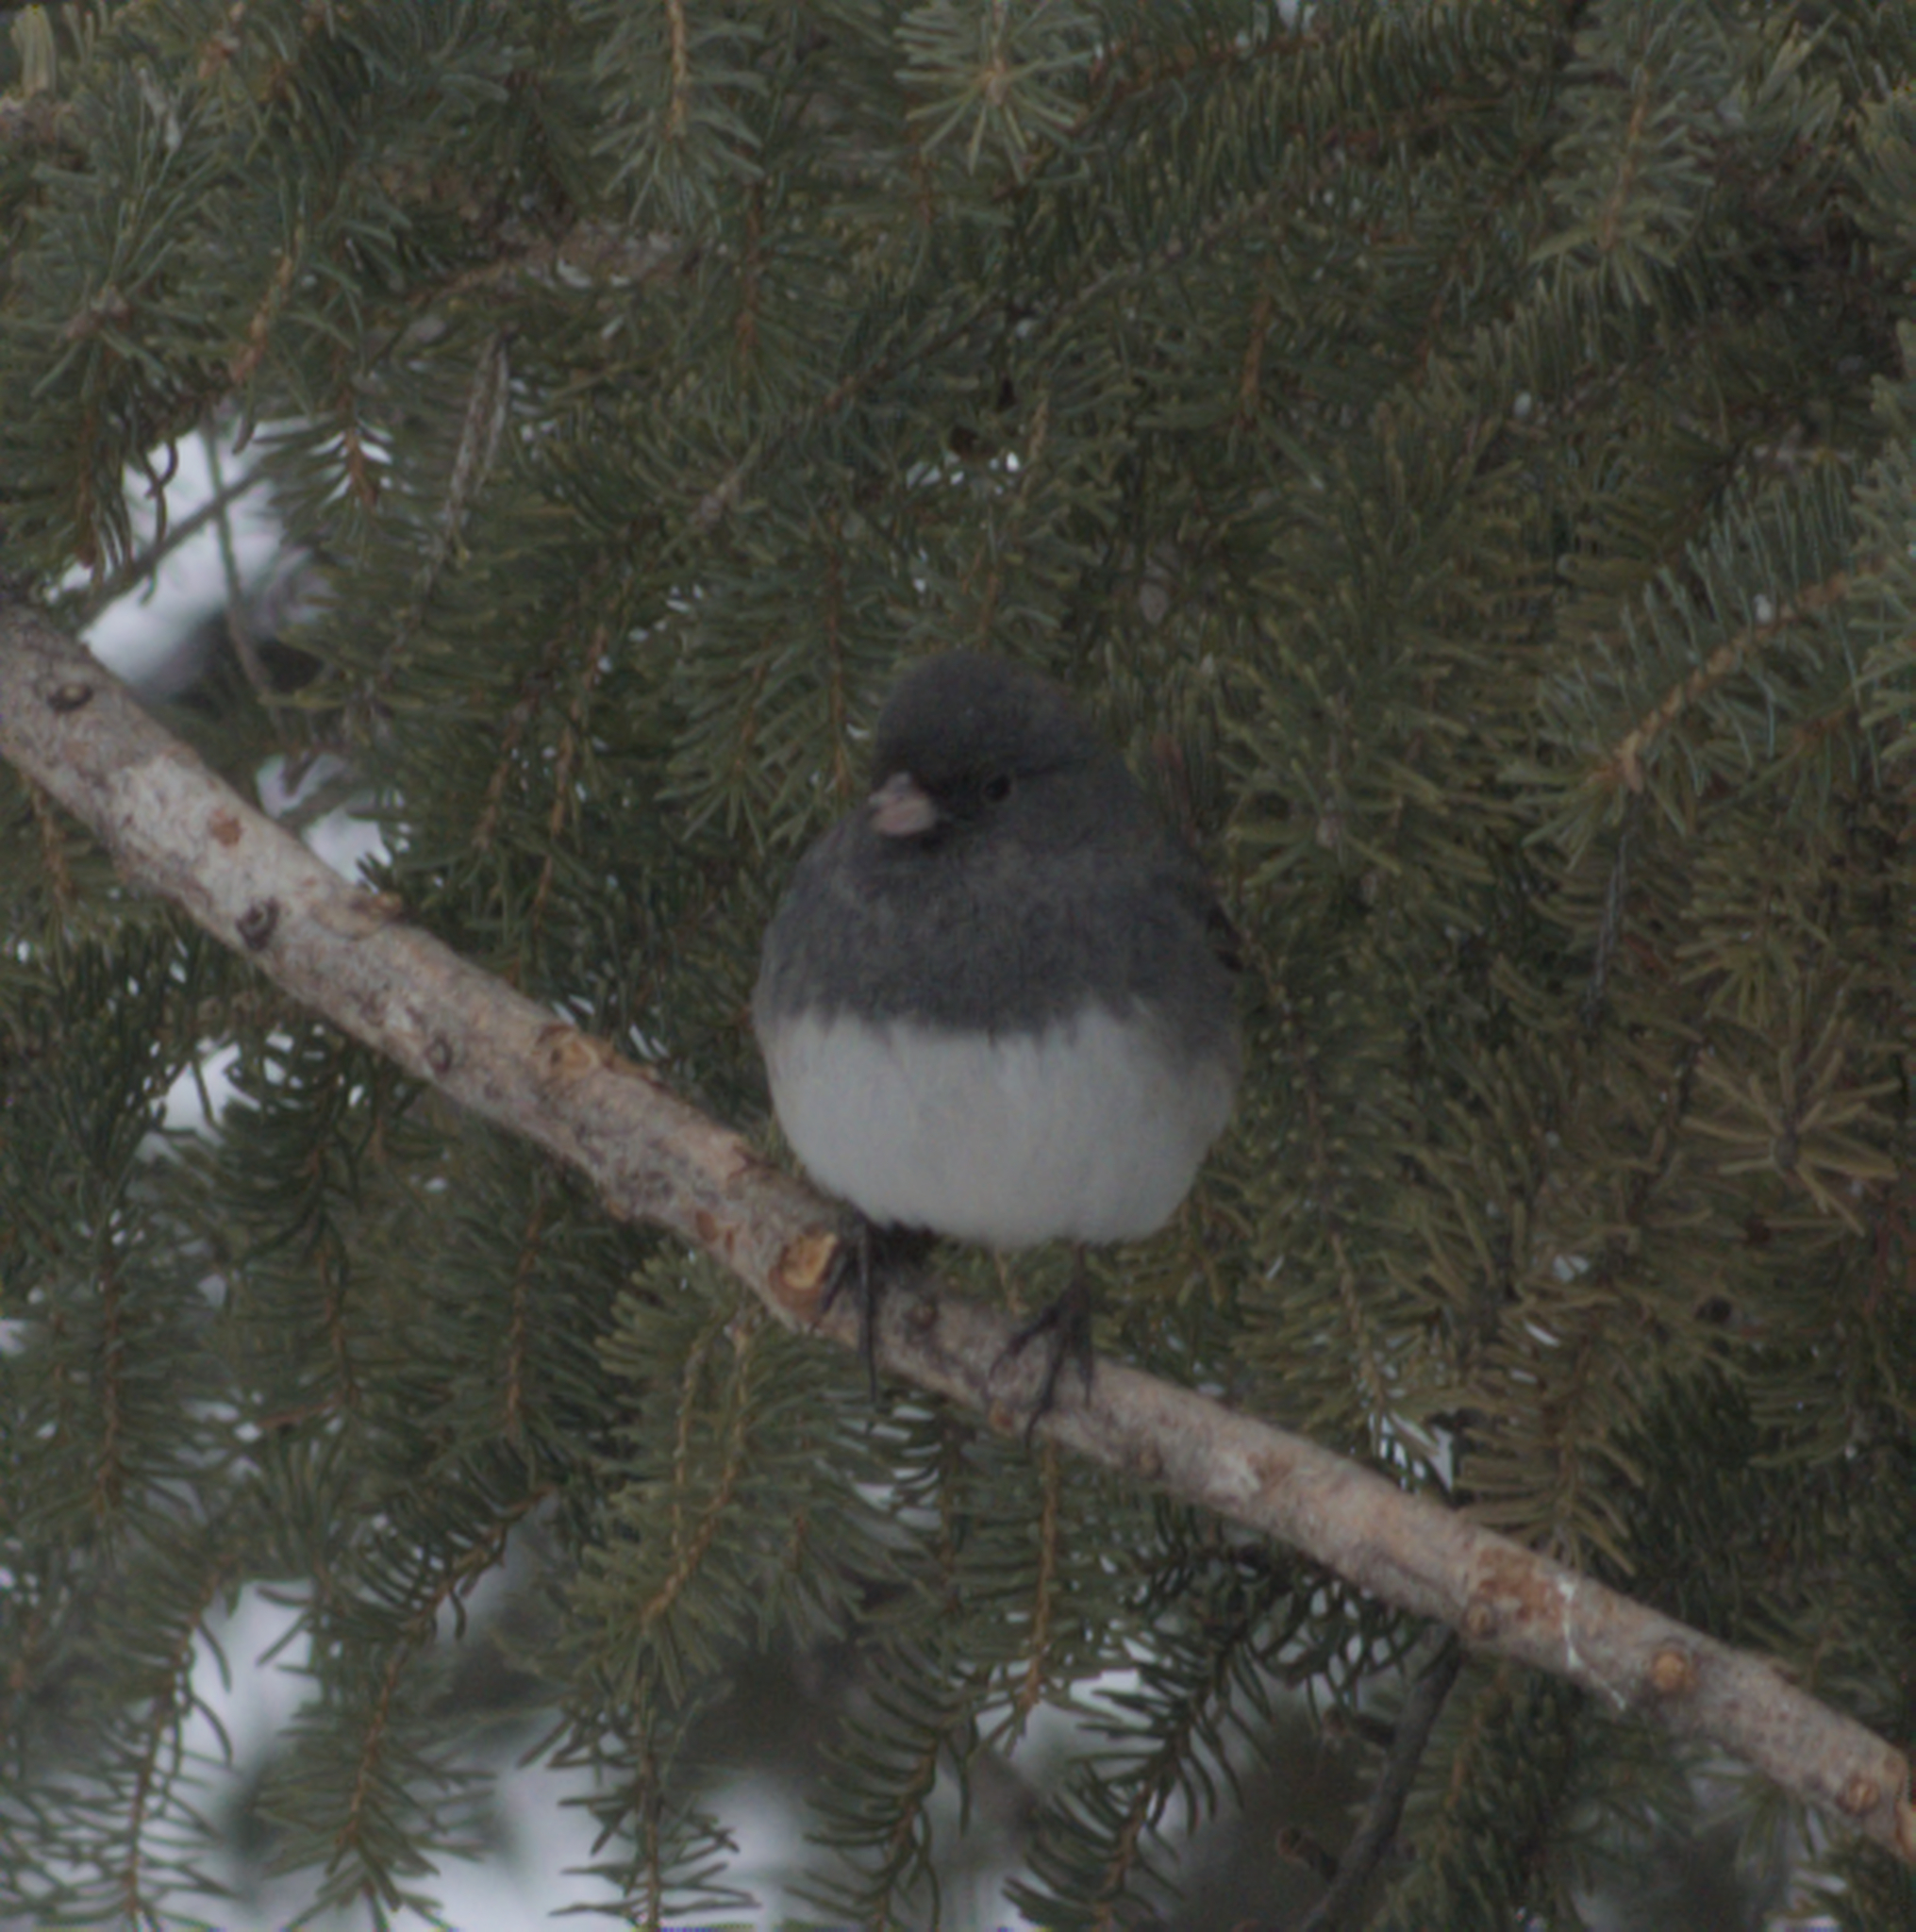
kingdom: Animalia
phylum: Chordata
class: Aves
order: Passeriformes
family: Passerellidae
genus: Junco
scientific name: Junco hyemalis
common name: Dark-eyed junco
